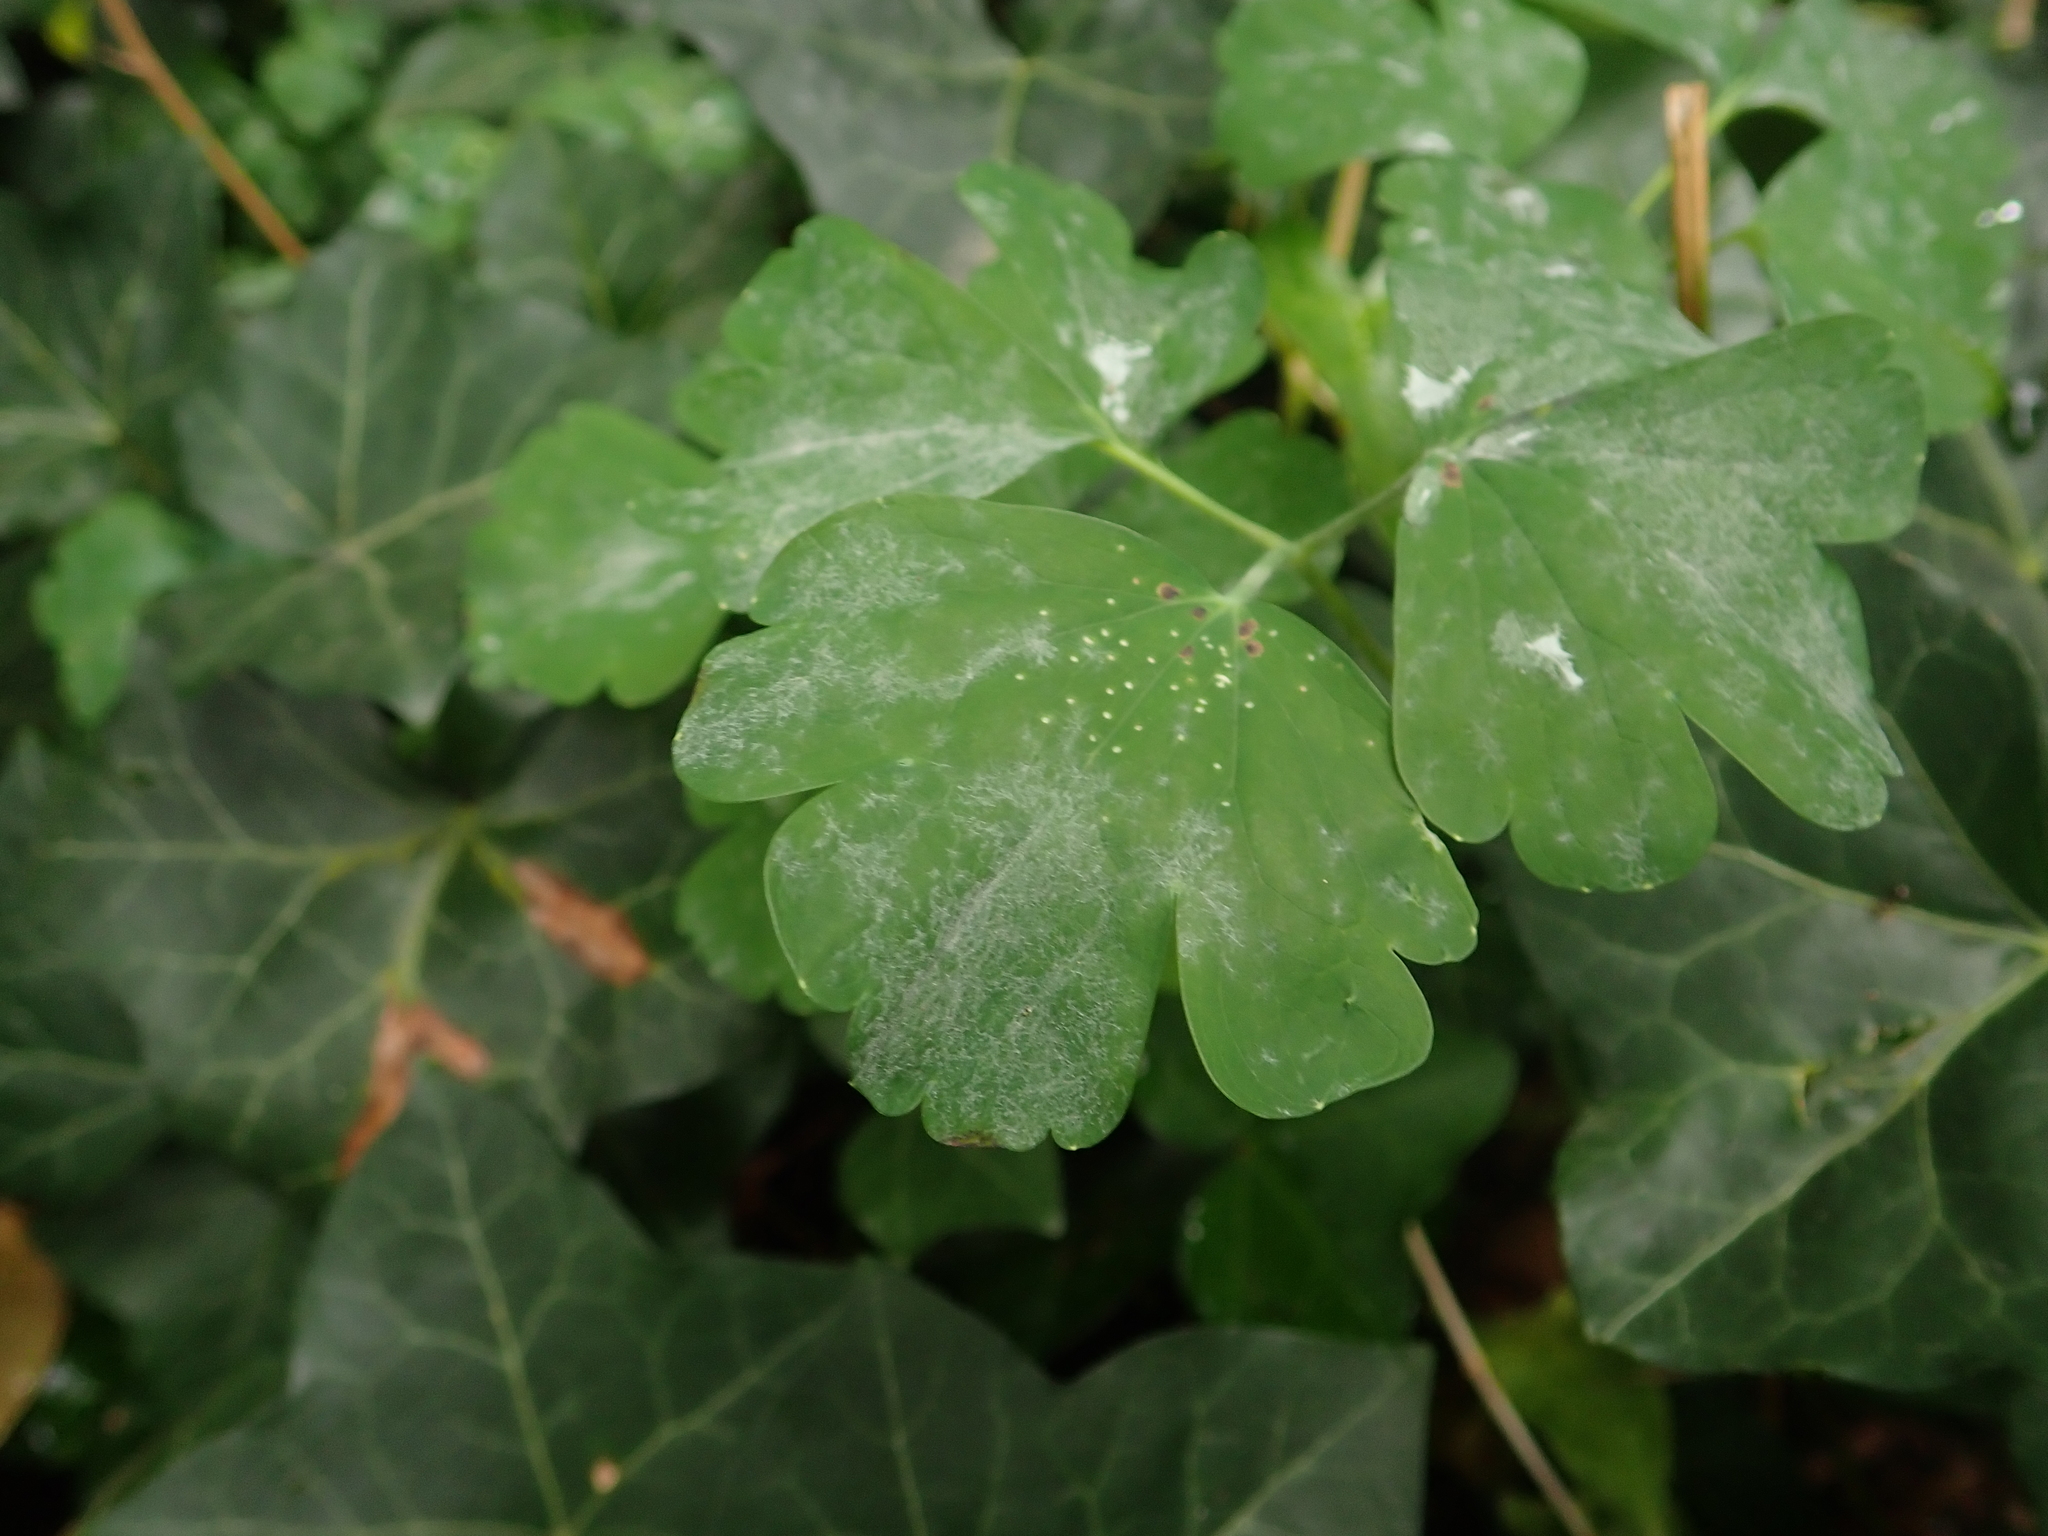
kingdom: Fungi
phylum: Ascomycota
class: Leotiomycetes
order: Helotiales
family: Erysiphaceae
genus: Erysiphe
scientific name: Erysiphe aquilegiae
